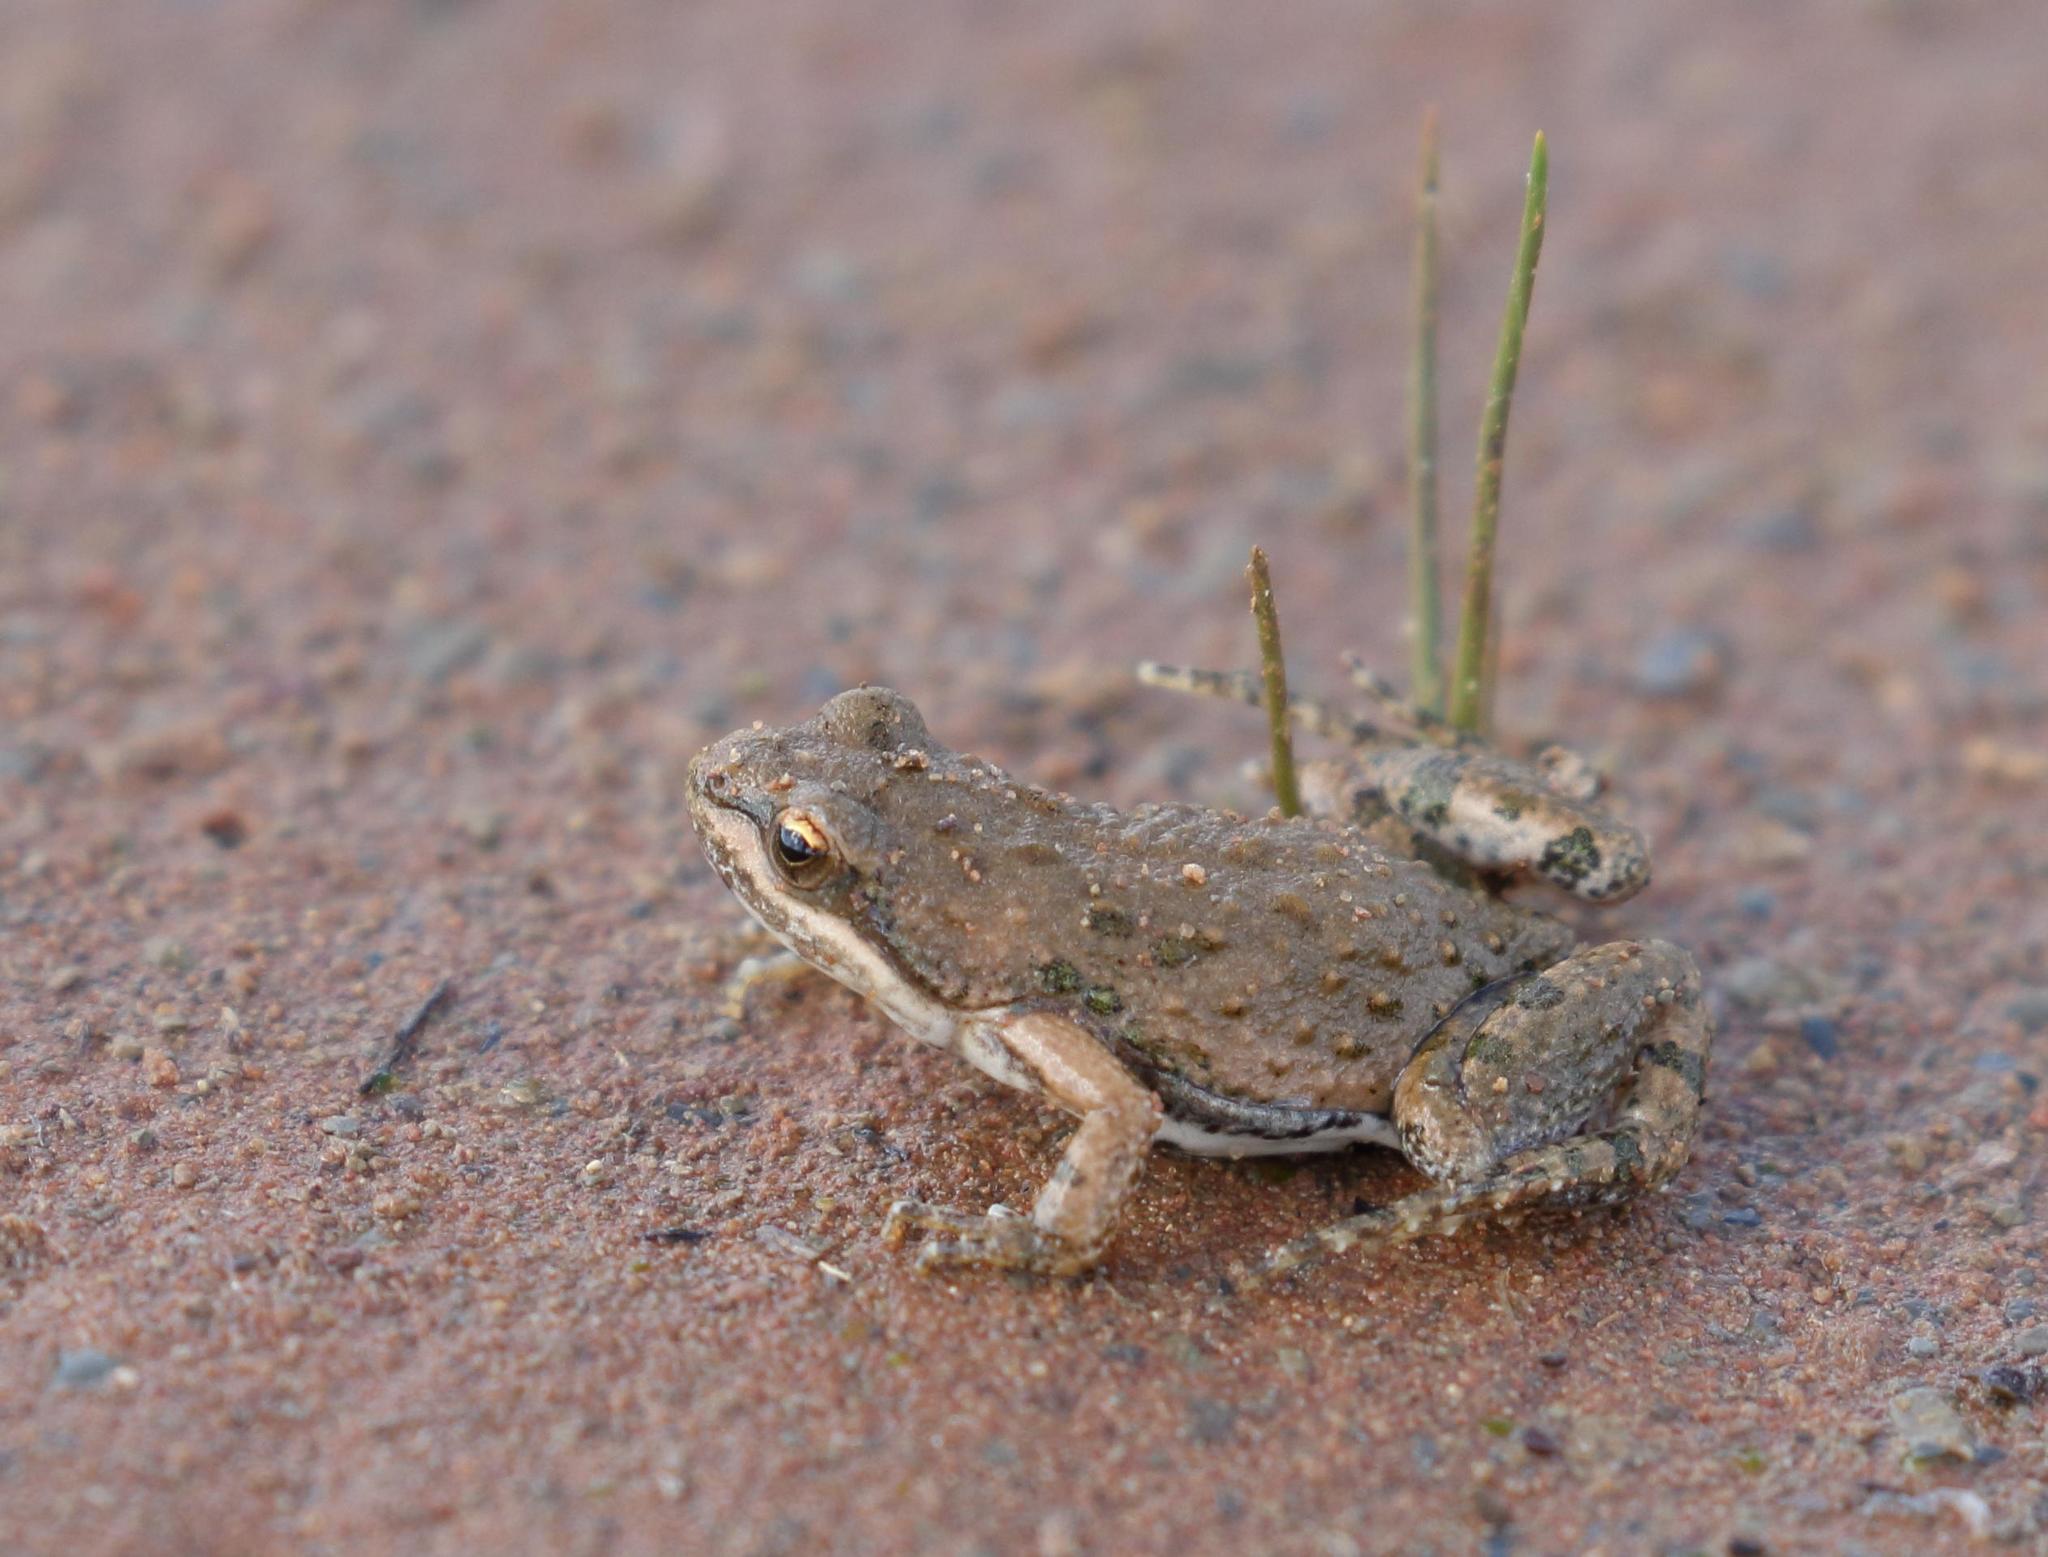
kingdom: Animalia
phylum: Chordata
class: Amphibia
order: Anura
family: Pyxicephalidae
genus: Cacosternum
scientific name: Cacosternum boettgeri
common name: Boettger's frog
